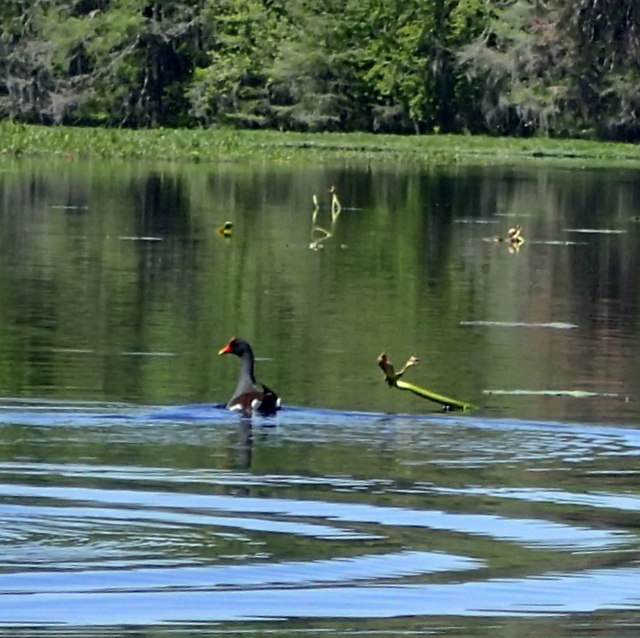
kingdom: Animalia
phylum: Chordata
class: Aves
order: Gruiformes
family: Rallidae
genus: Gallinula
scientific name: Gallinula chloropus
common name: Common moorhen
